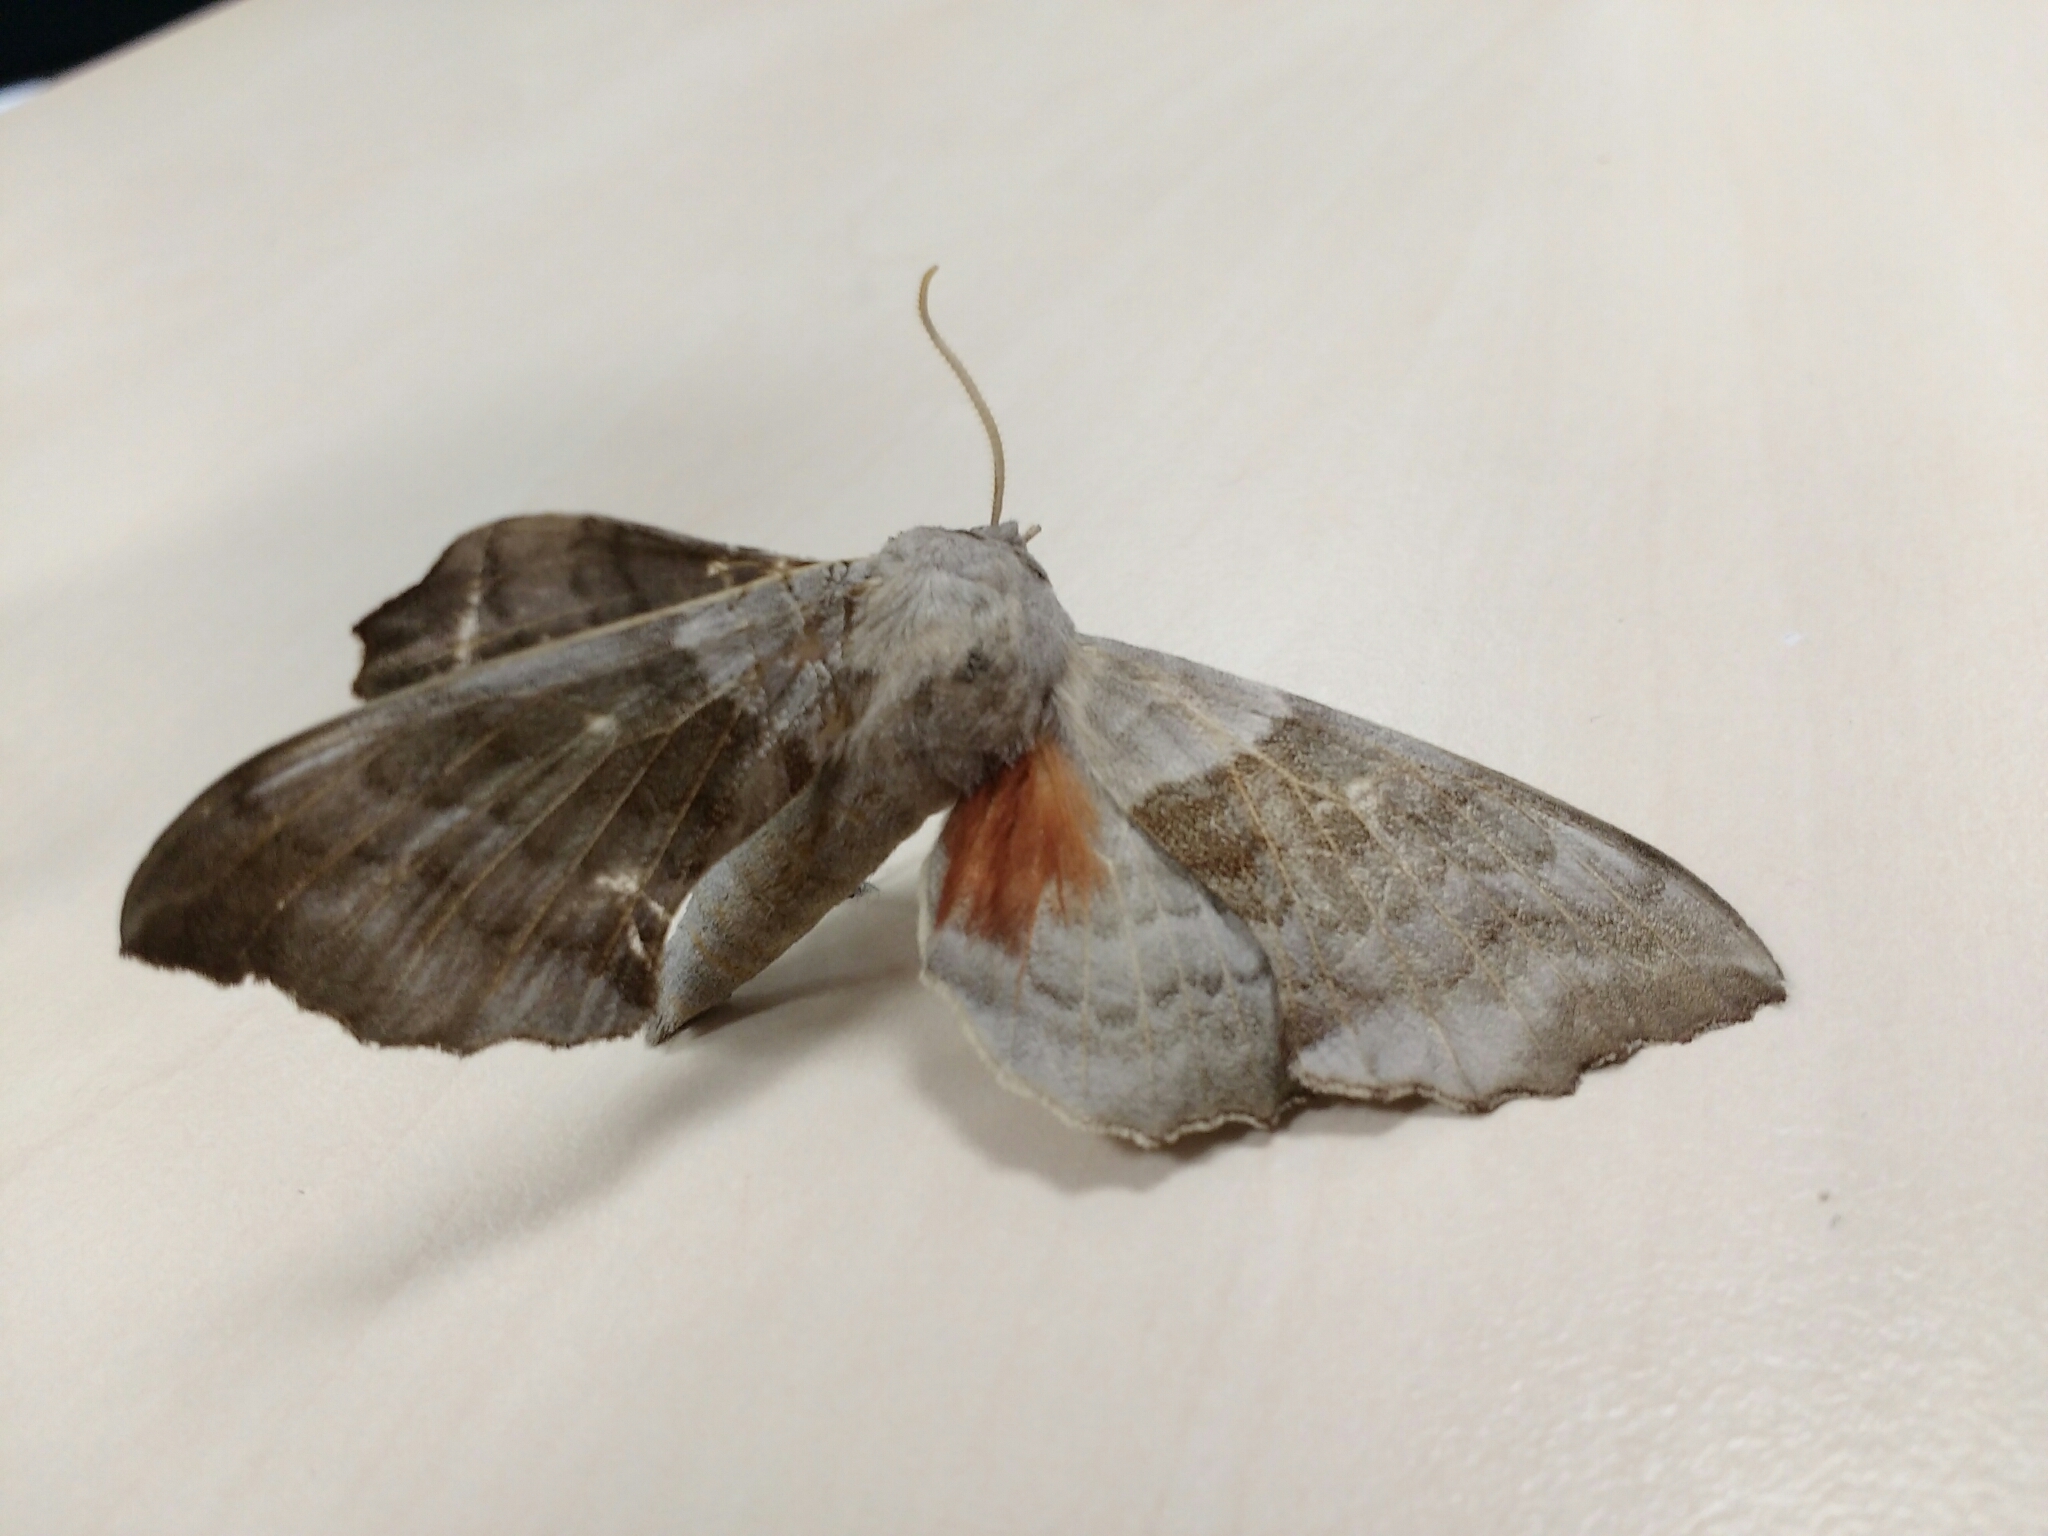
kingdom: Animalia
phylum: Arthropoda
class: Insecta
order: Lepidoptera
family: Sphingidae
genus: Laothoe
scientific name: Laothoe populi
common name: Poplar hawk-moth
